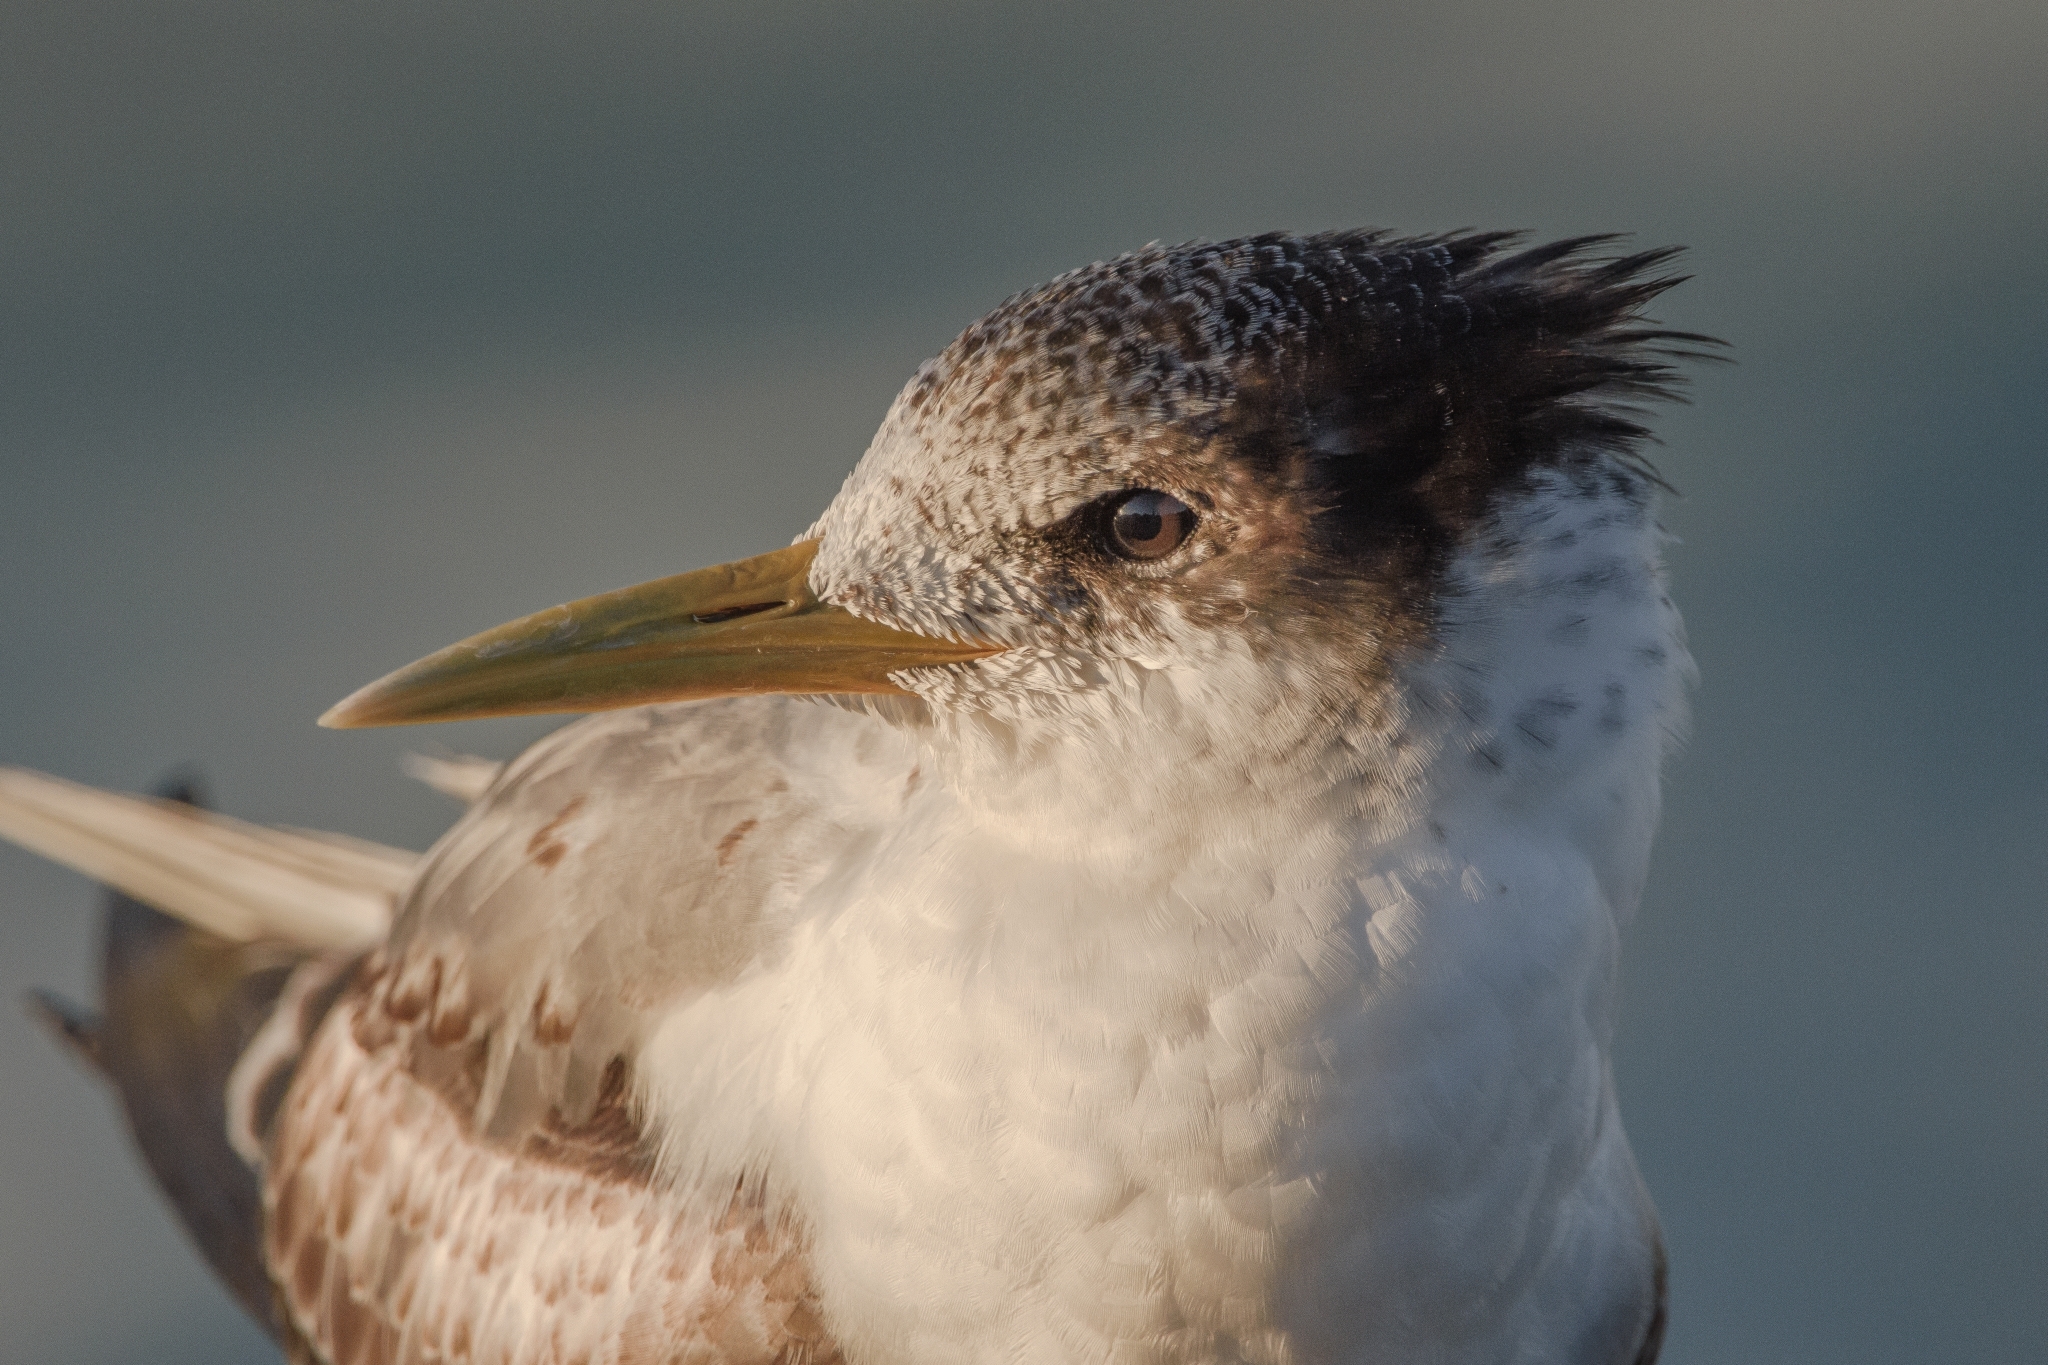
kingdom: Animalia
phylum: Chordata
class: Aves
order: Charadriiformes
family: Laridae
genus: Thalasseus
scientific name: Thalasseus bergii
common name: Greater crested tern
